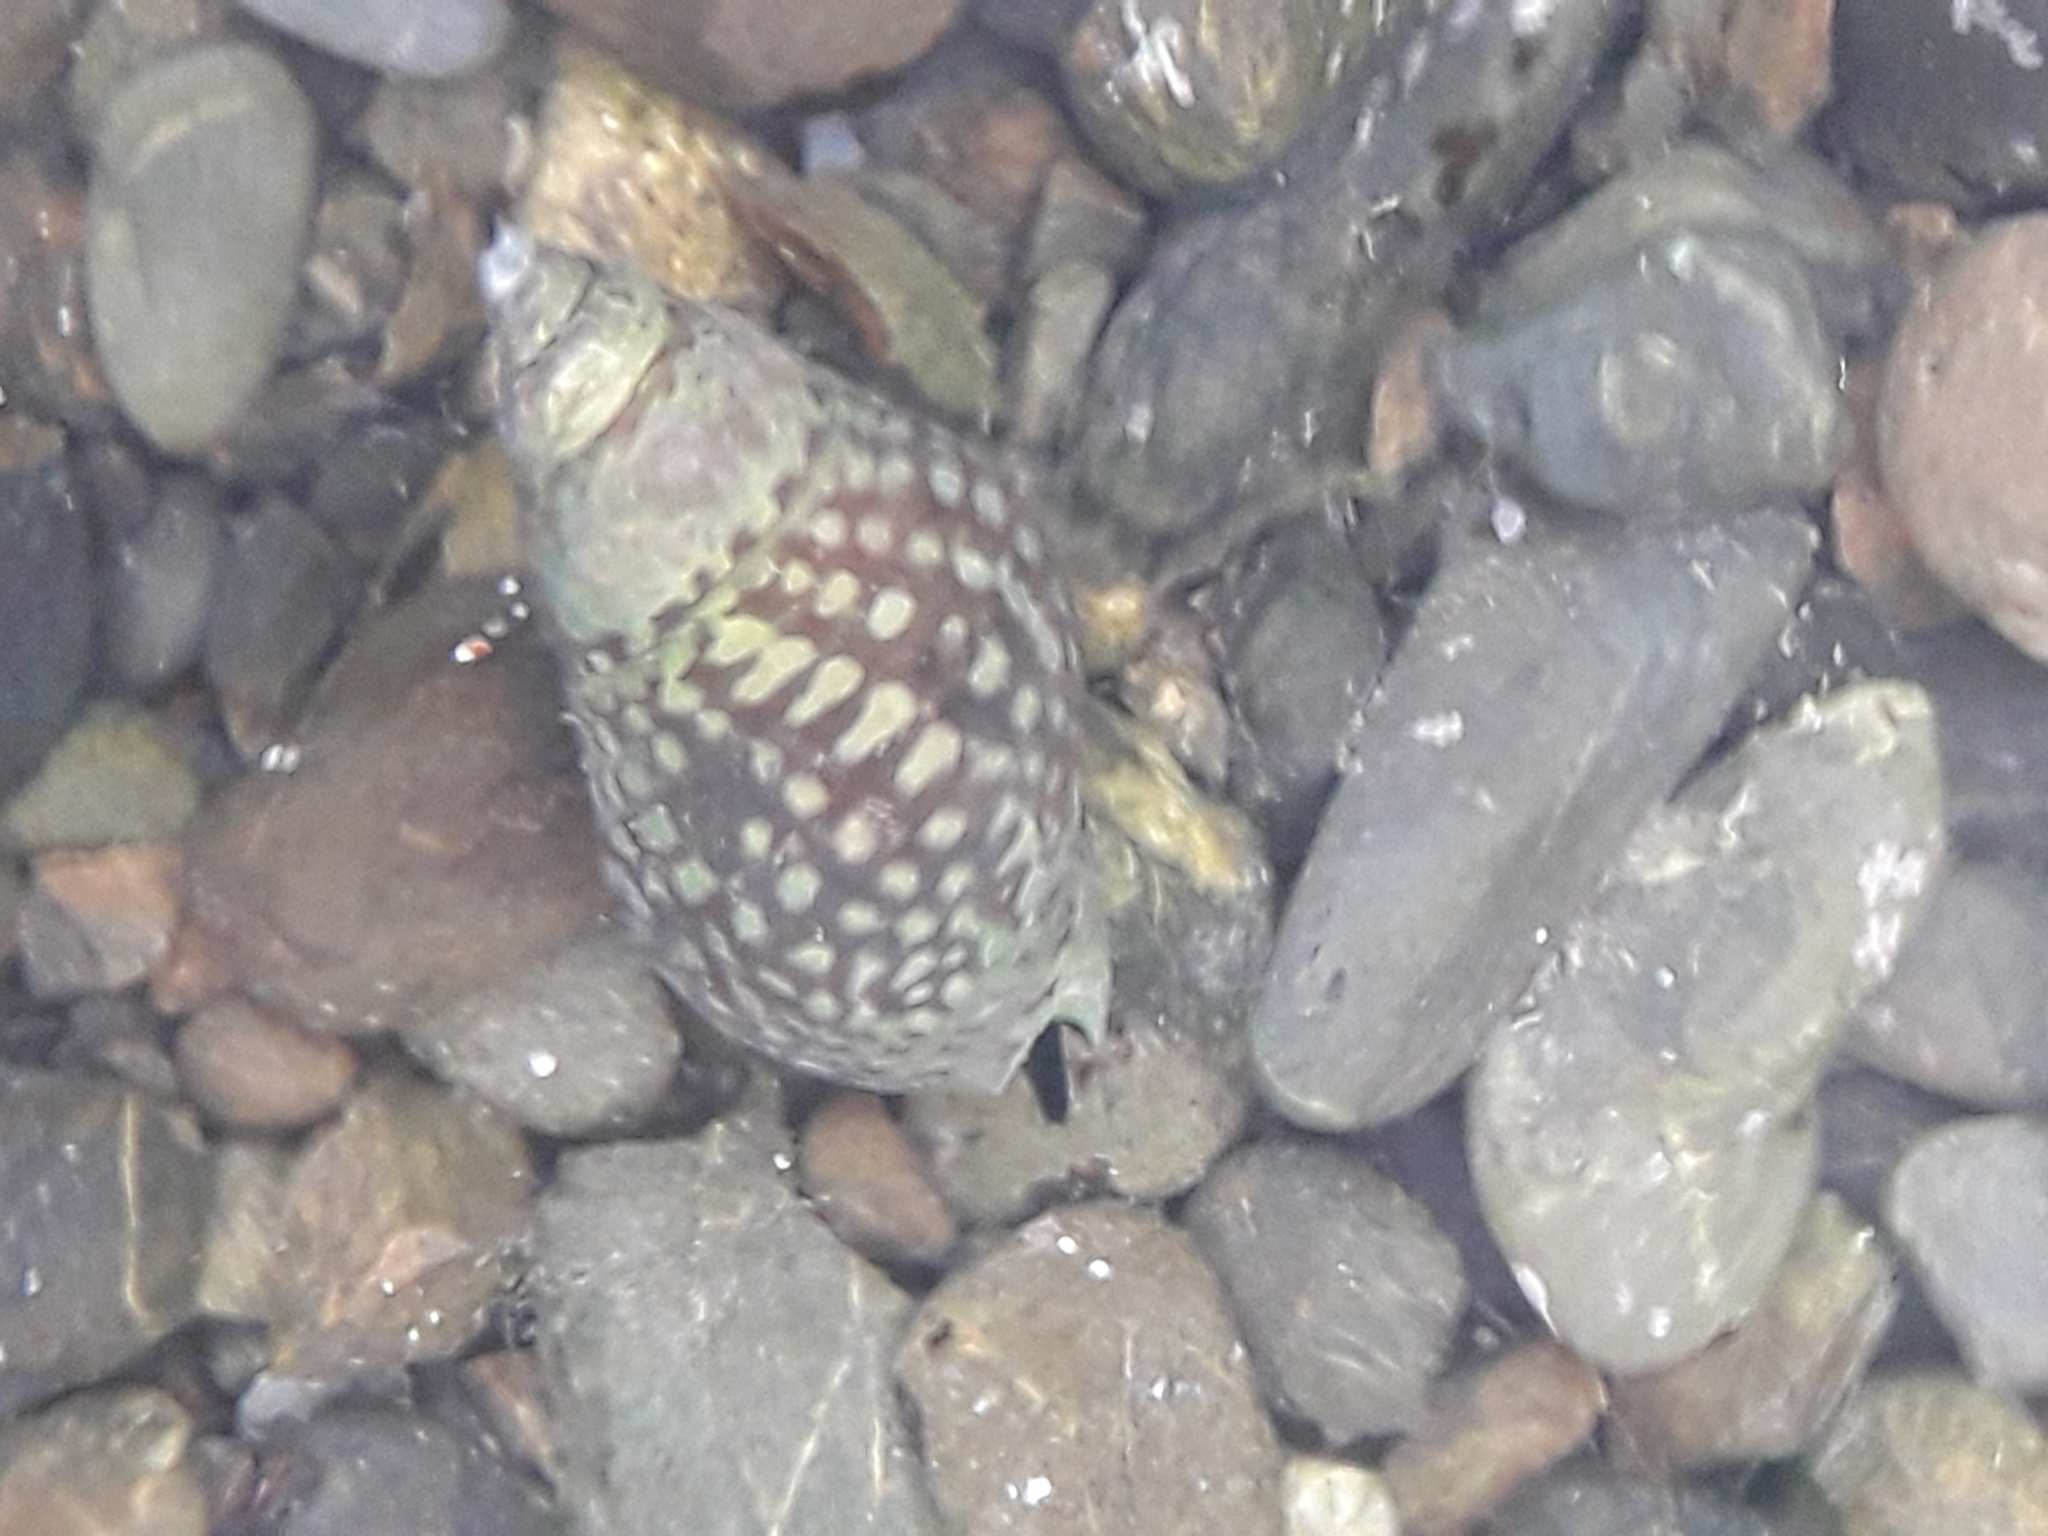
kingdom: Animalia
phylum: Mollusca
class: Gastropoda
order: Neogastropoda
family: Cominellidae
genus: Cominella
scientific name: Cominella maculosa
